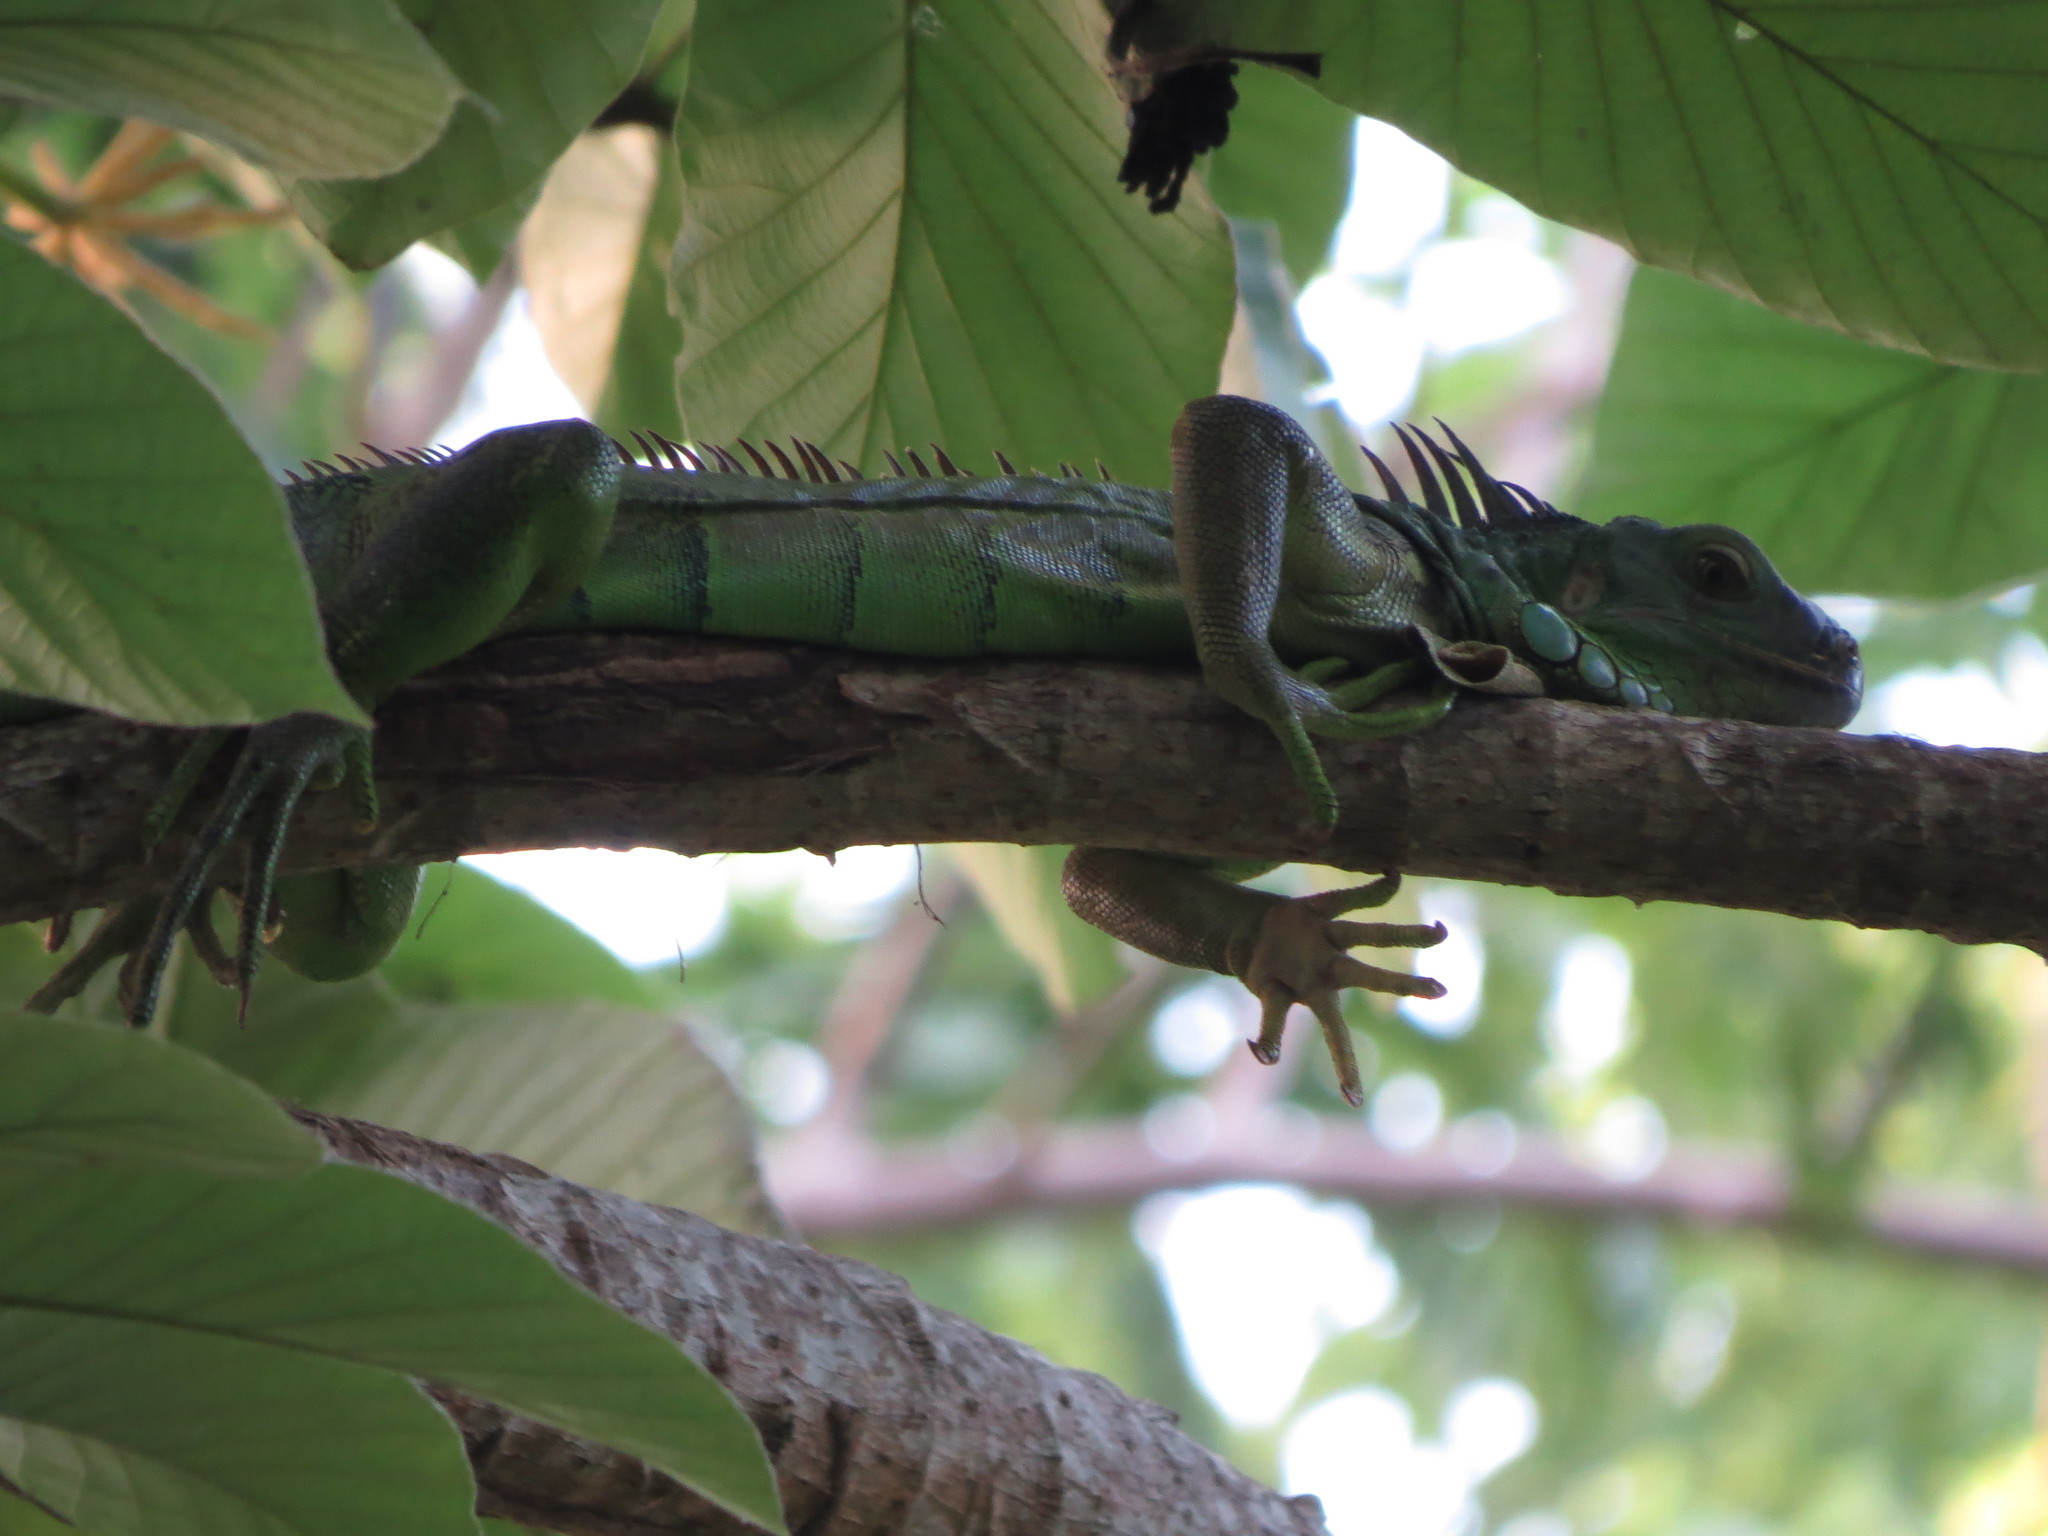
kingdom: Animalia
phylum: Chordata
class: Squamata
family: Iguanidae
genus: Iguana
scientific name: Iguana iguana
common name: Green iguana
